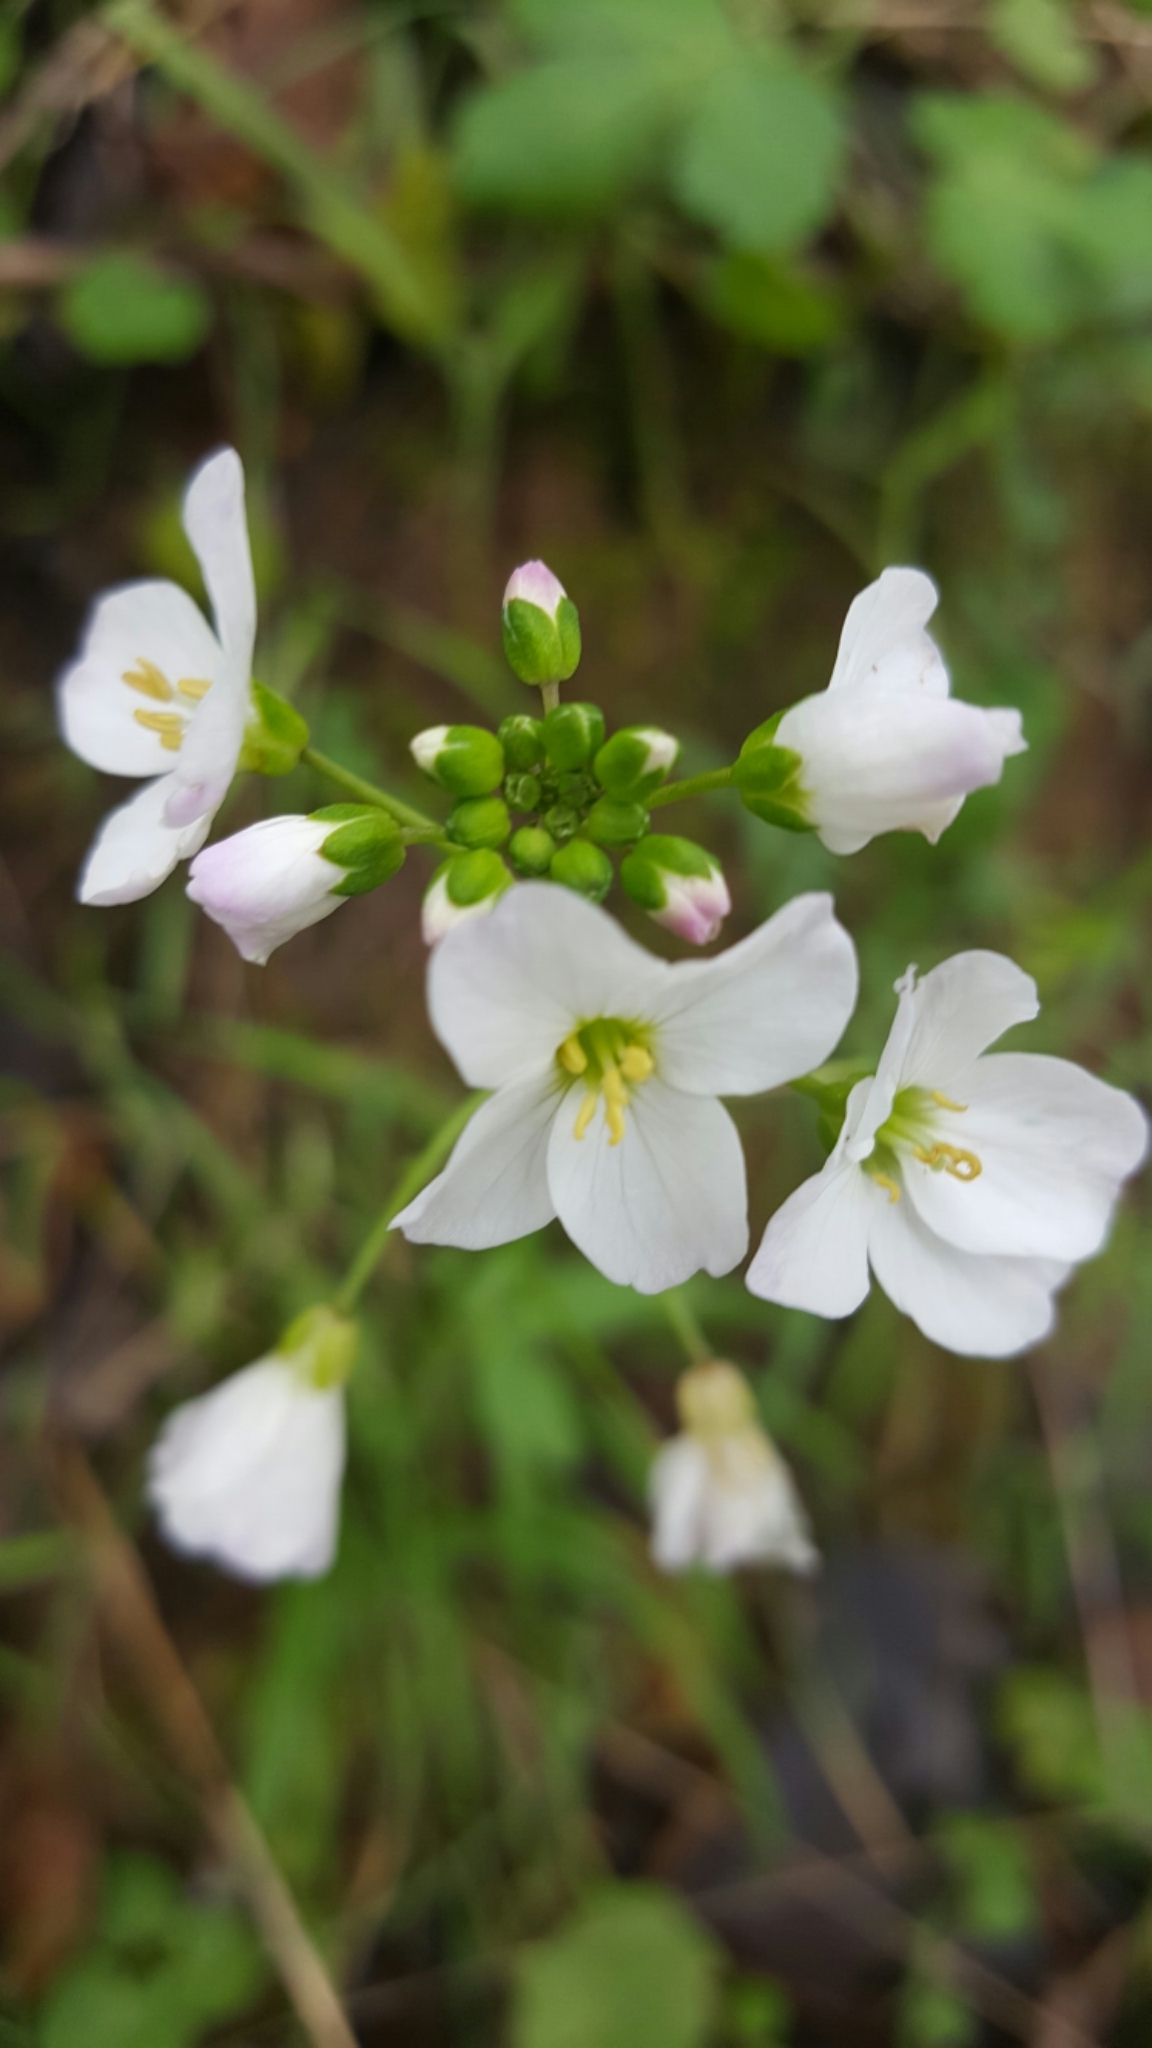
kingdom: Plantae
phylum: Tracheophyta
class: Magnoliopsida
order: Brassicales
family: Brassicaceae
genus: Cardamine
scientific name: Cardamine californica
